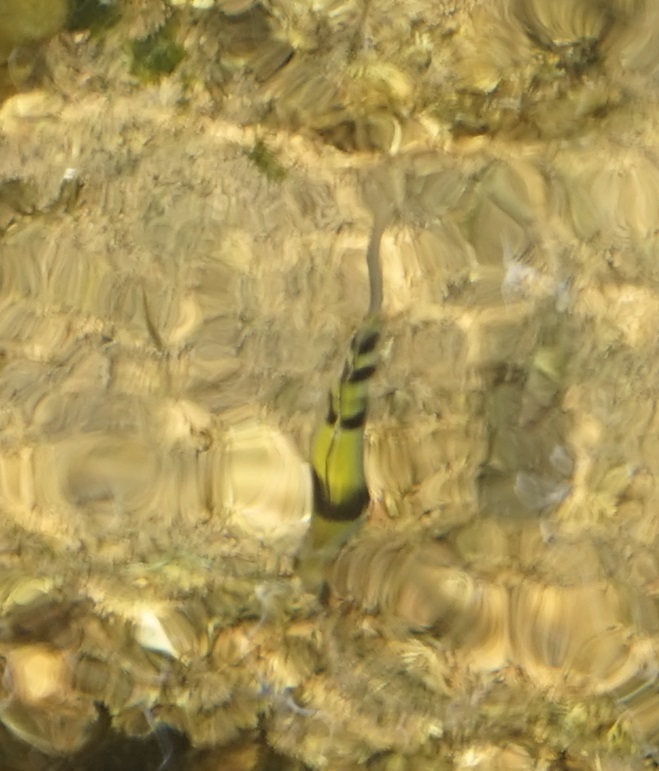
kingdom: Animalia
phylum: Chordata
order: Perciformes
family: Pomacentridae
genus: Abudefduf
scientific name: Abudefduf
